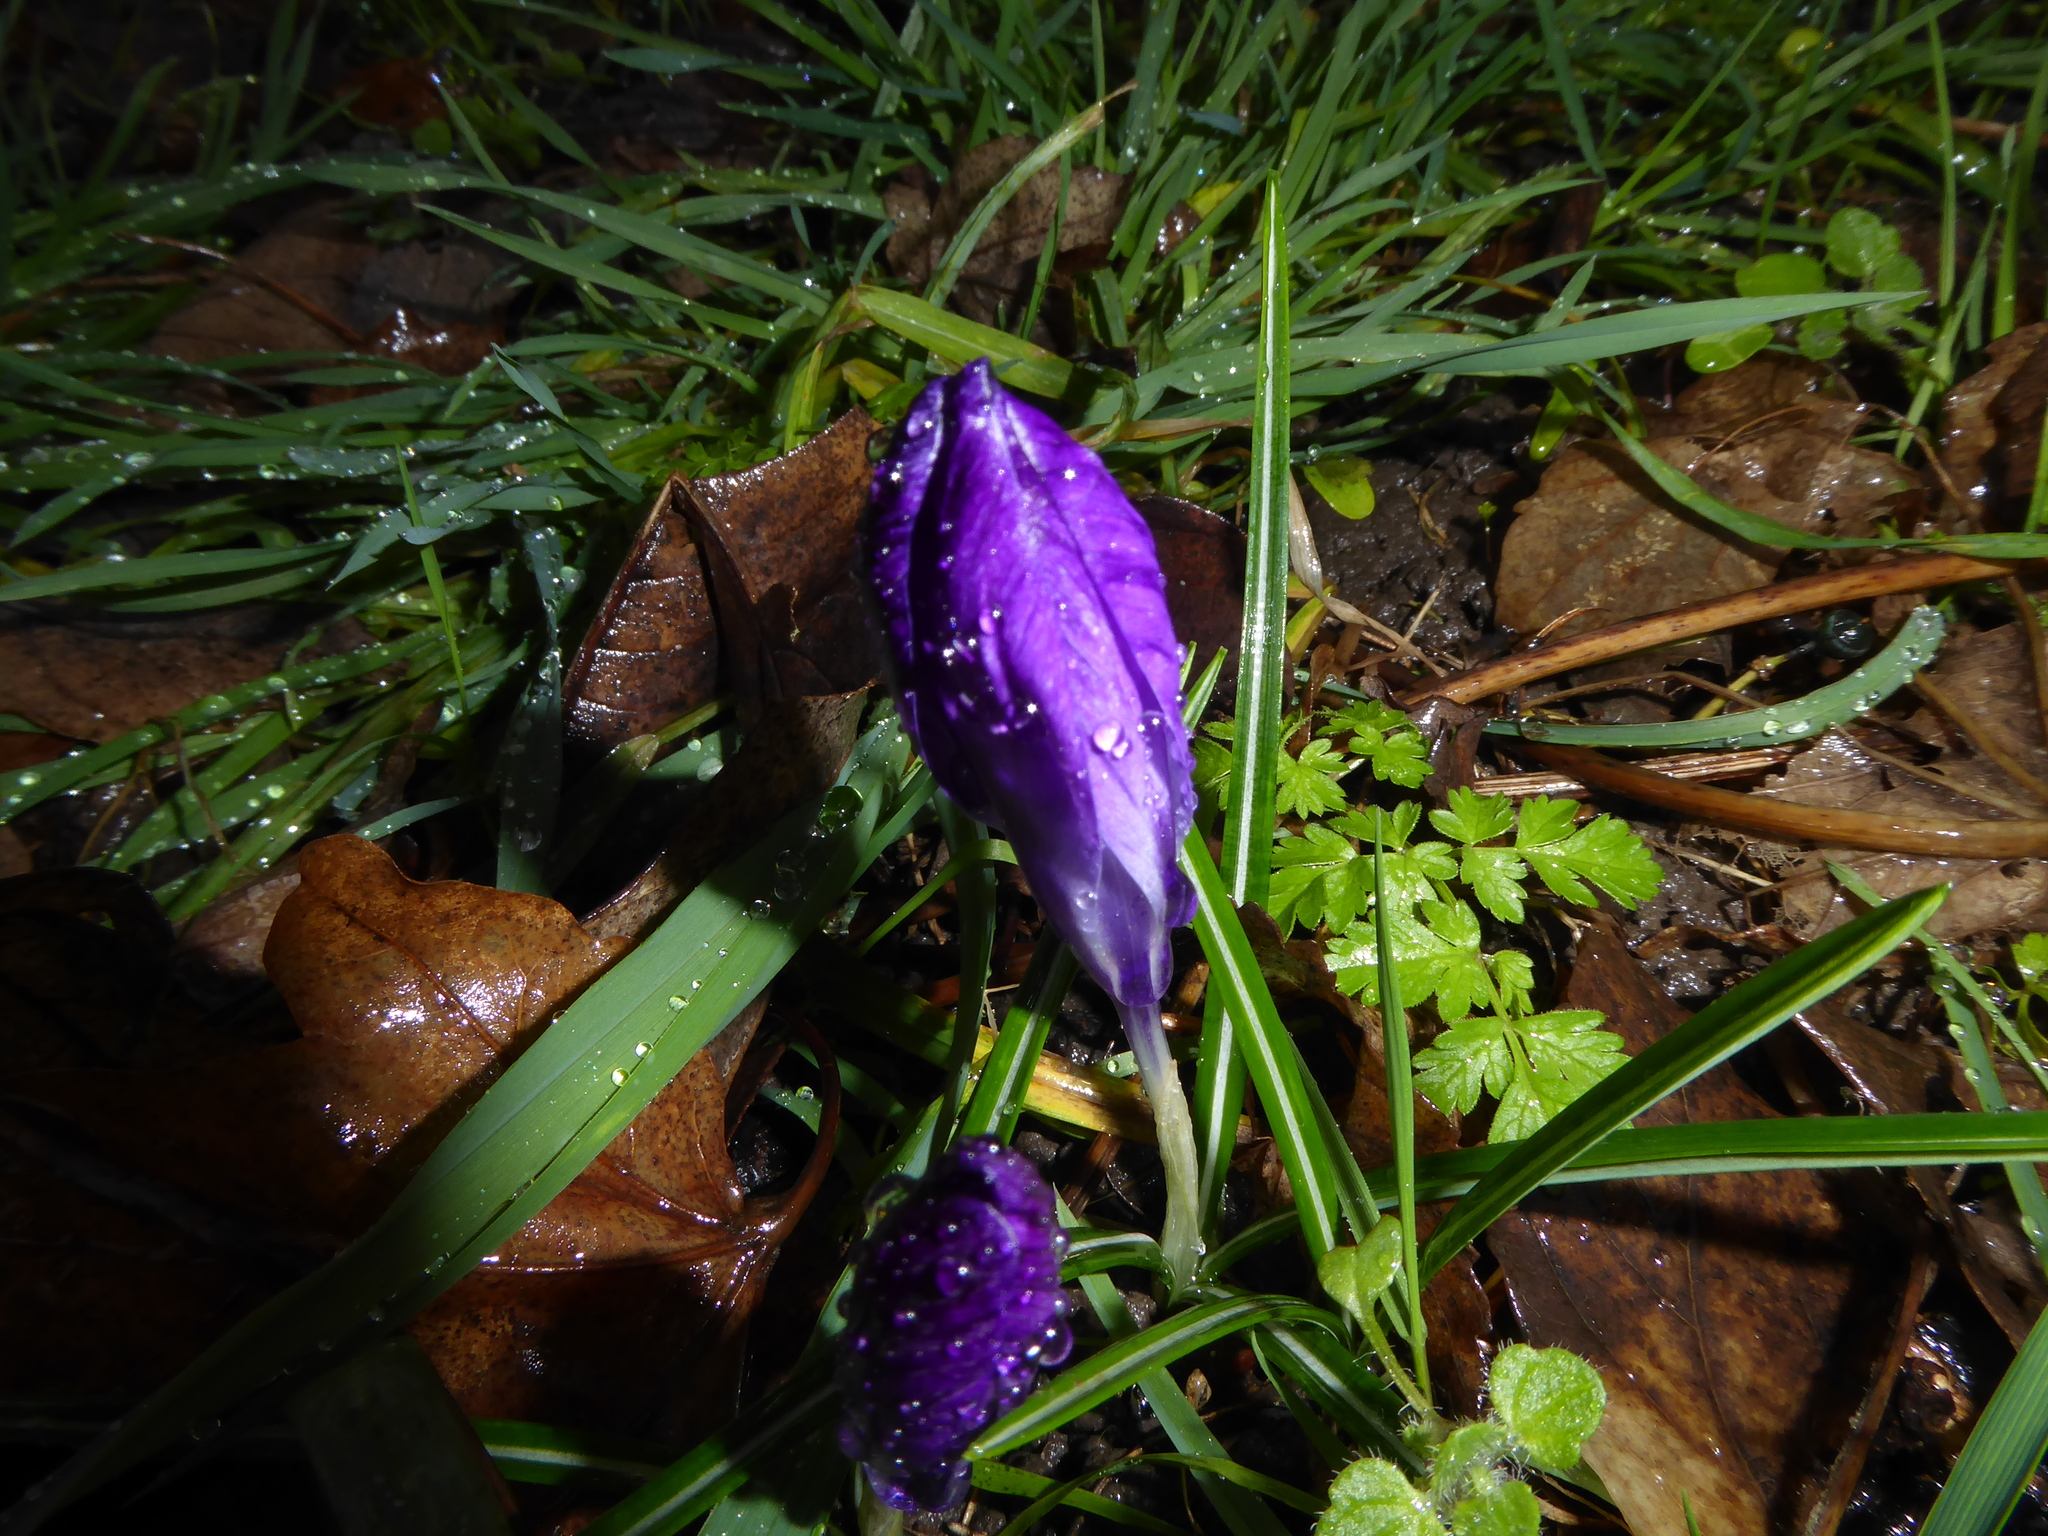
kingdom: Plantae
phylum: Tracheophyta
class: Liliopsida
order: Asparagales
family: Iridaceae
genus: Crocus
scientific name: Crocus neapolitanus
